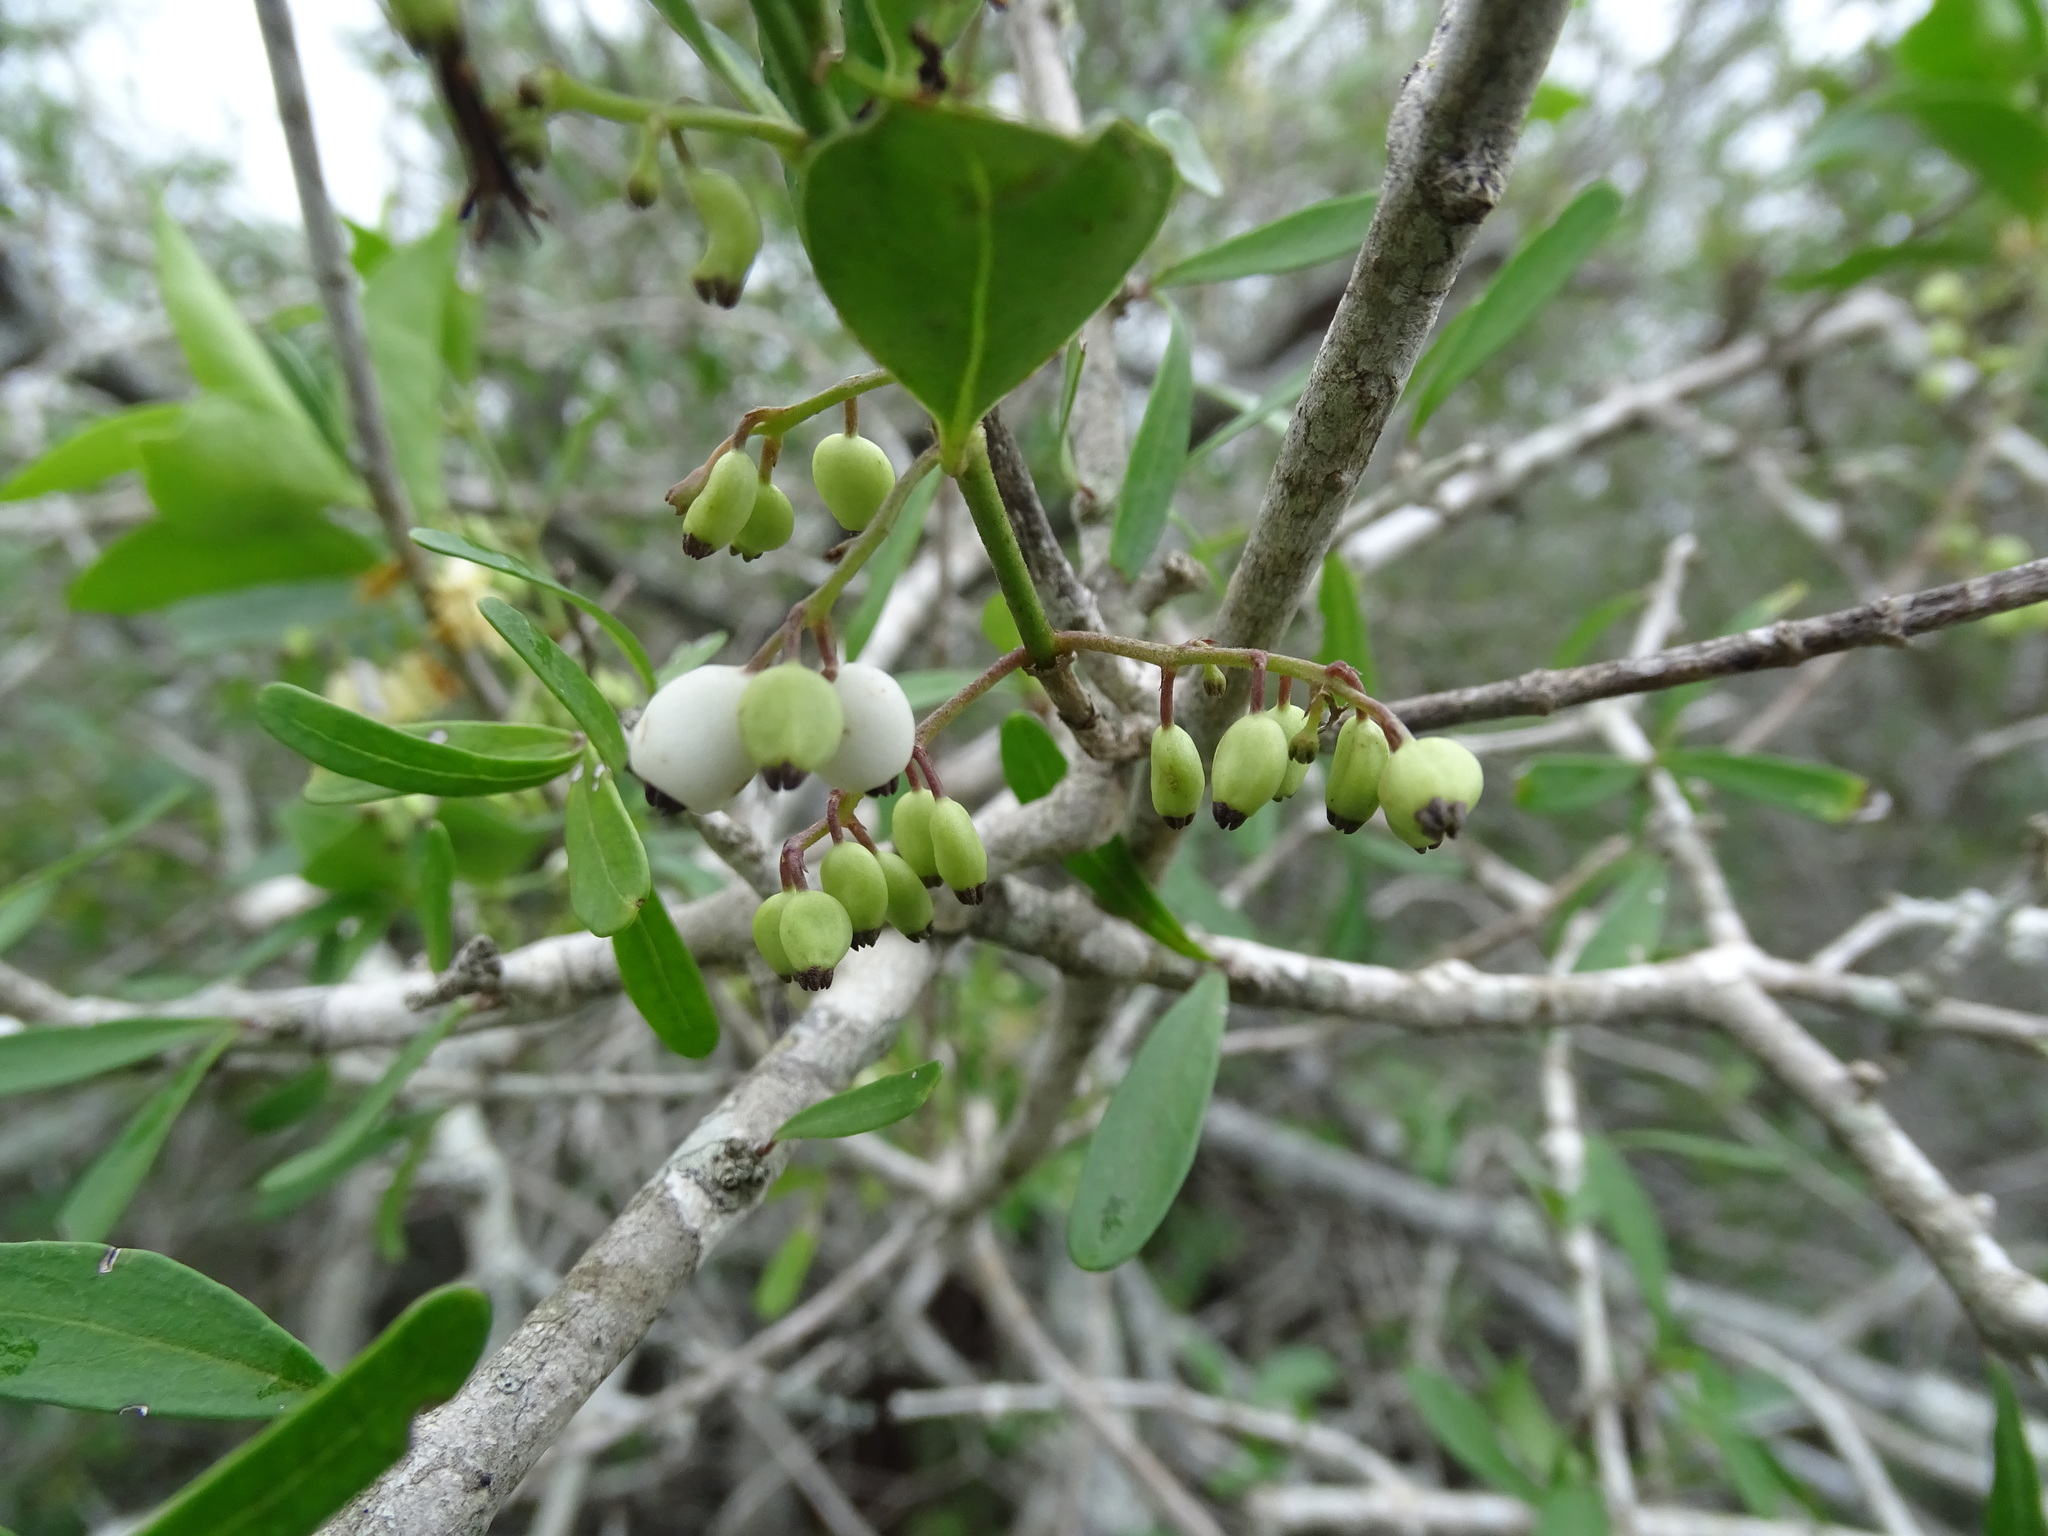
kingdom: Plantae
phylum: Tracheophyta
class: Magnoliopsida
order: Gentianales
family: Rubiaceae
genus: Chiococca
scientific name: Chiococca alba
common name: Snowberry
